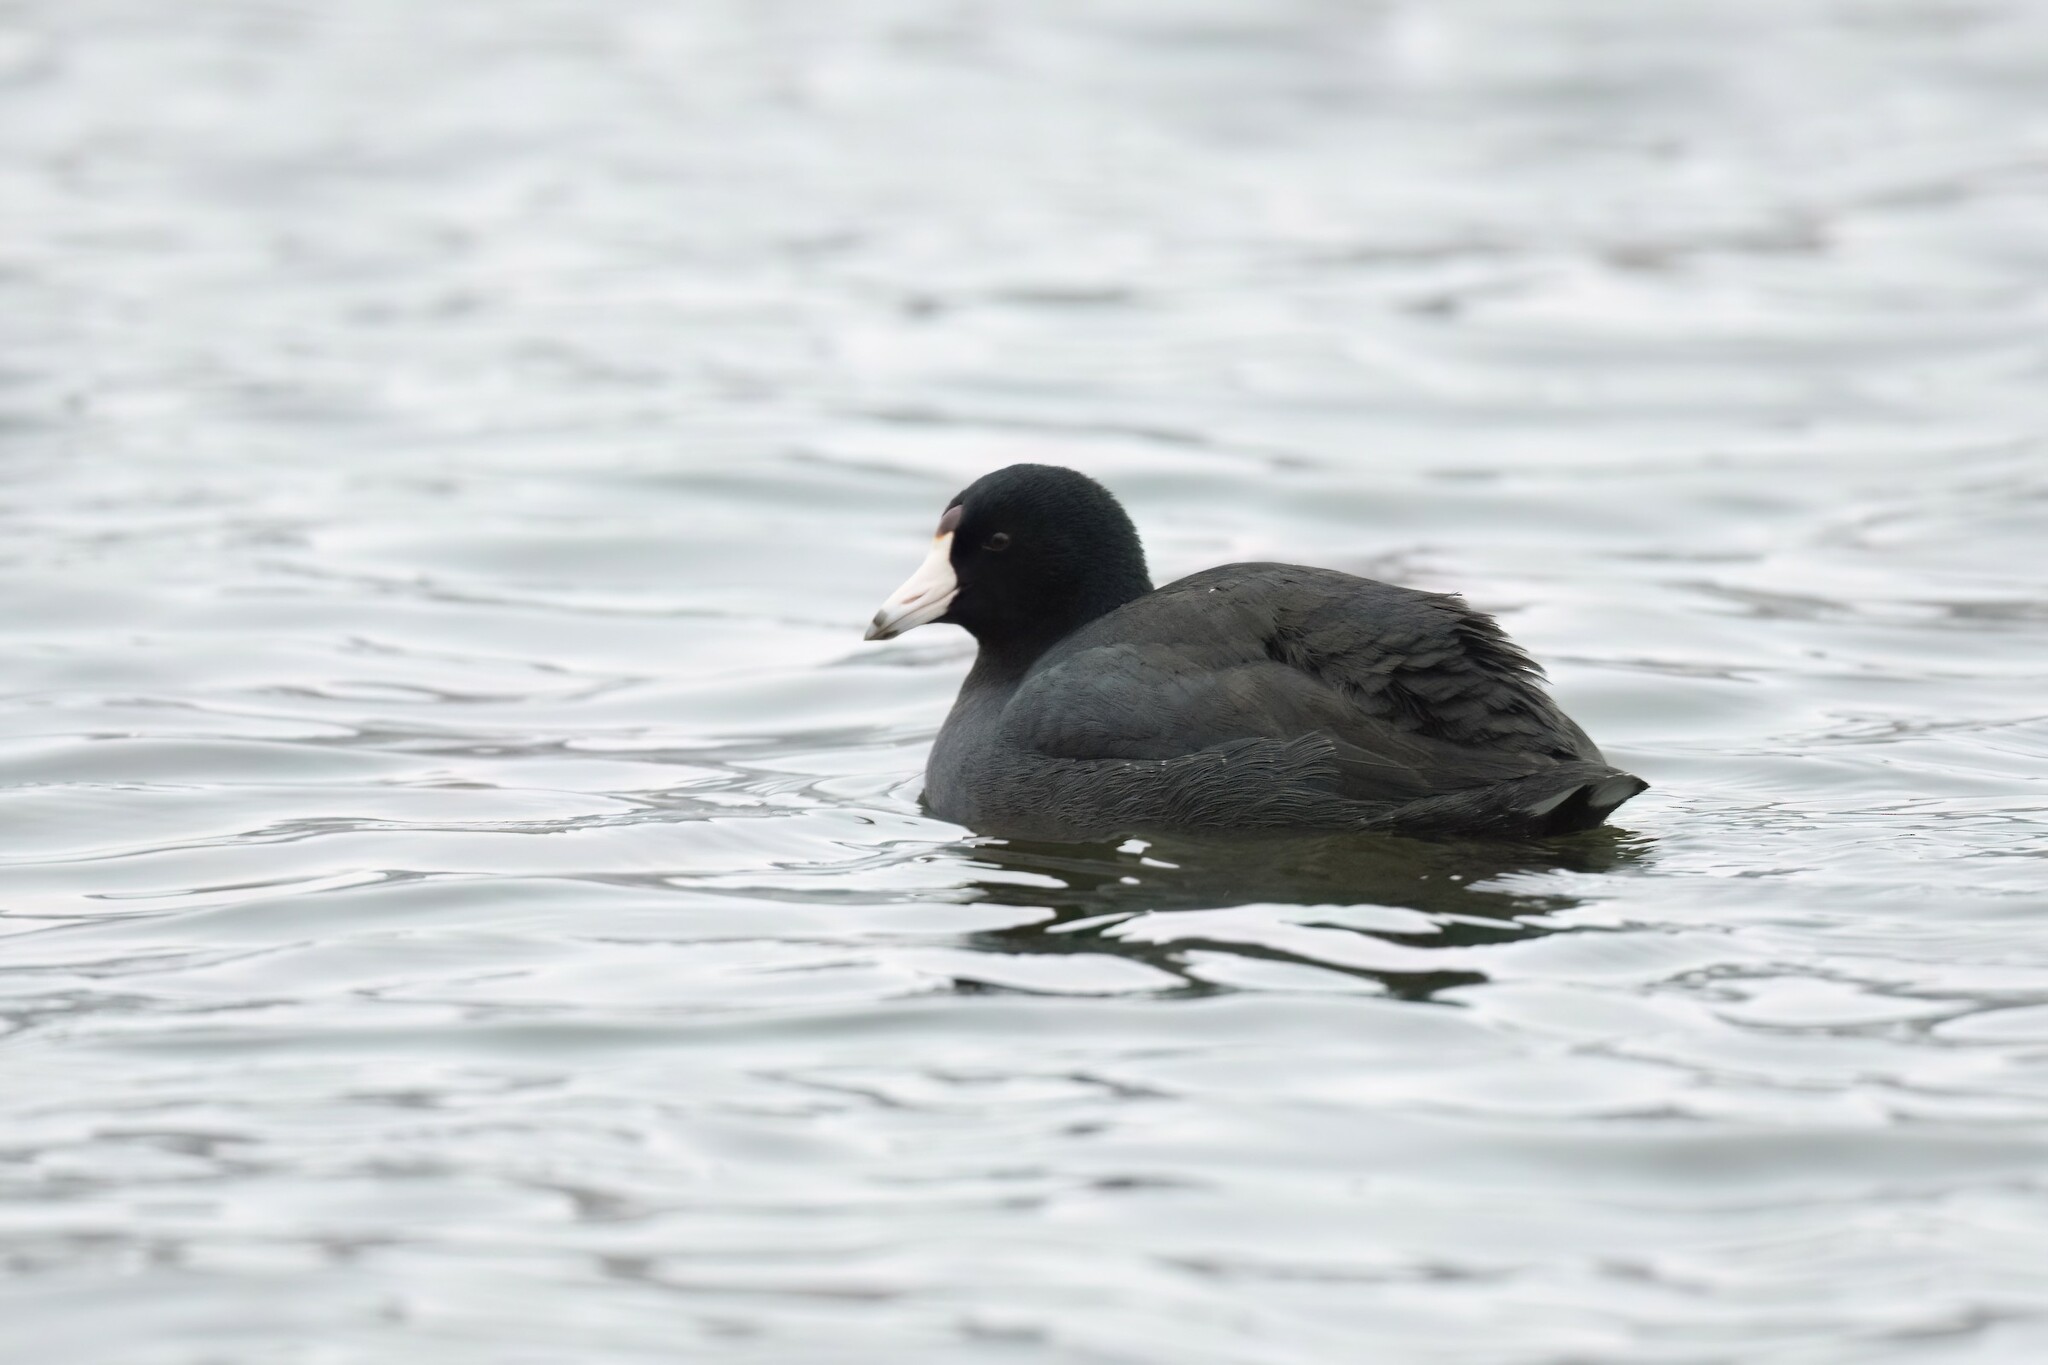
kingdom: Animalia
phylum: Chordata
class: Aves
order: Gruiformes
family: Rallidae
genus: Fulica
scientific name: Fulica americana
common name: American coot
